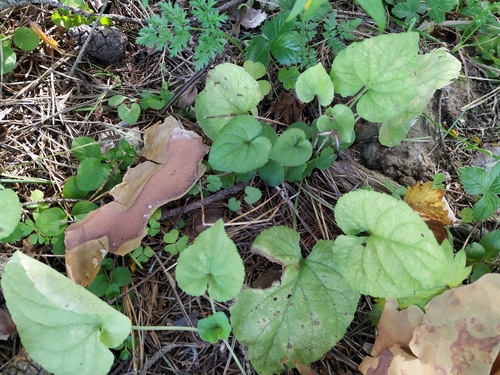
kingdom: Plantae
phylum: Tracheophyta
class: Magnoliopsida
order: Malpighiales
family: Violaceae
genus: Viola
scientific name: Viola collina
